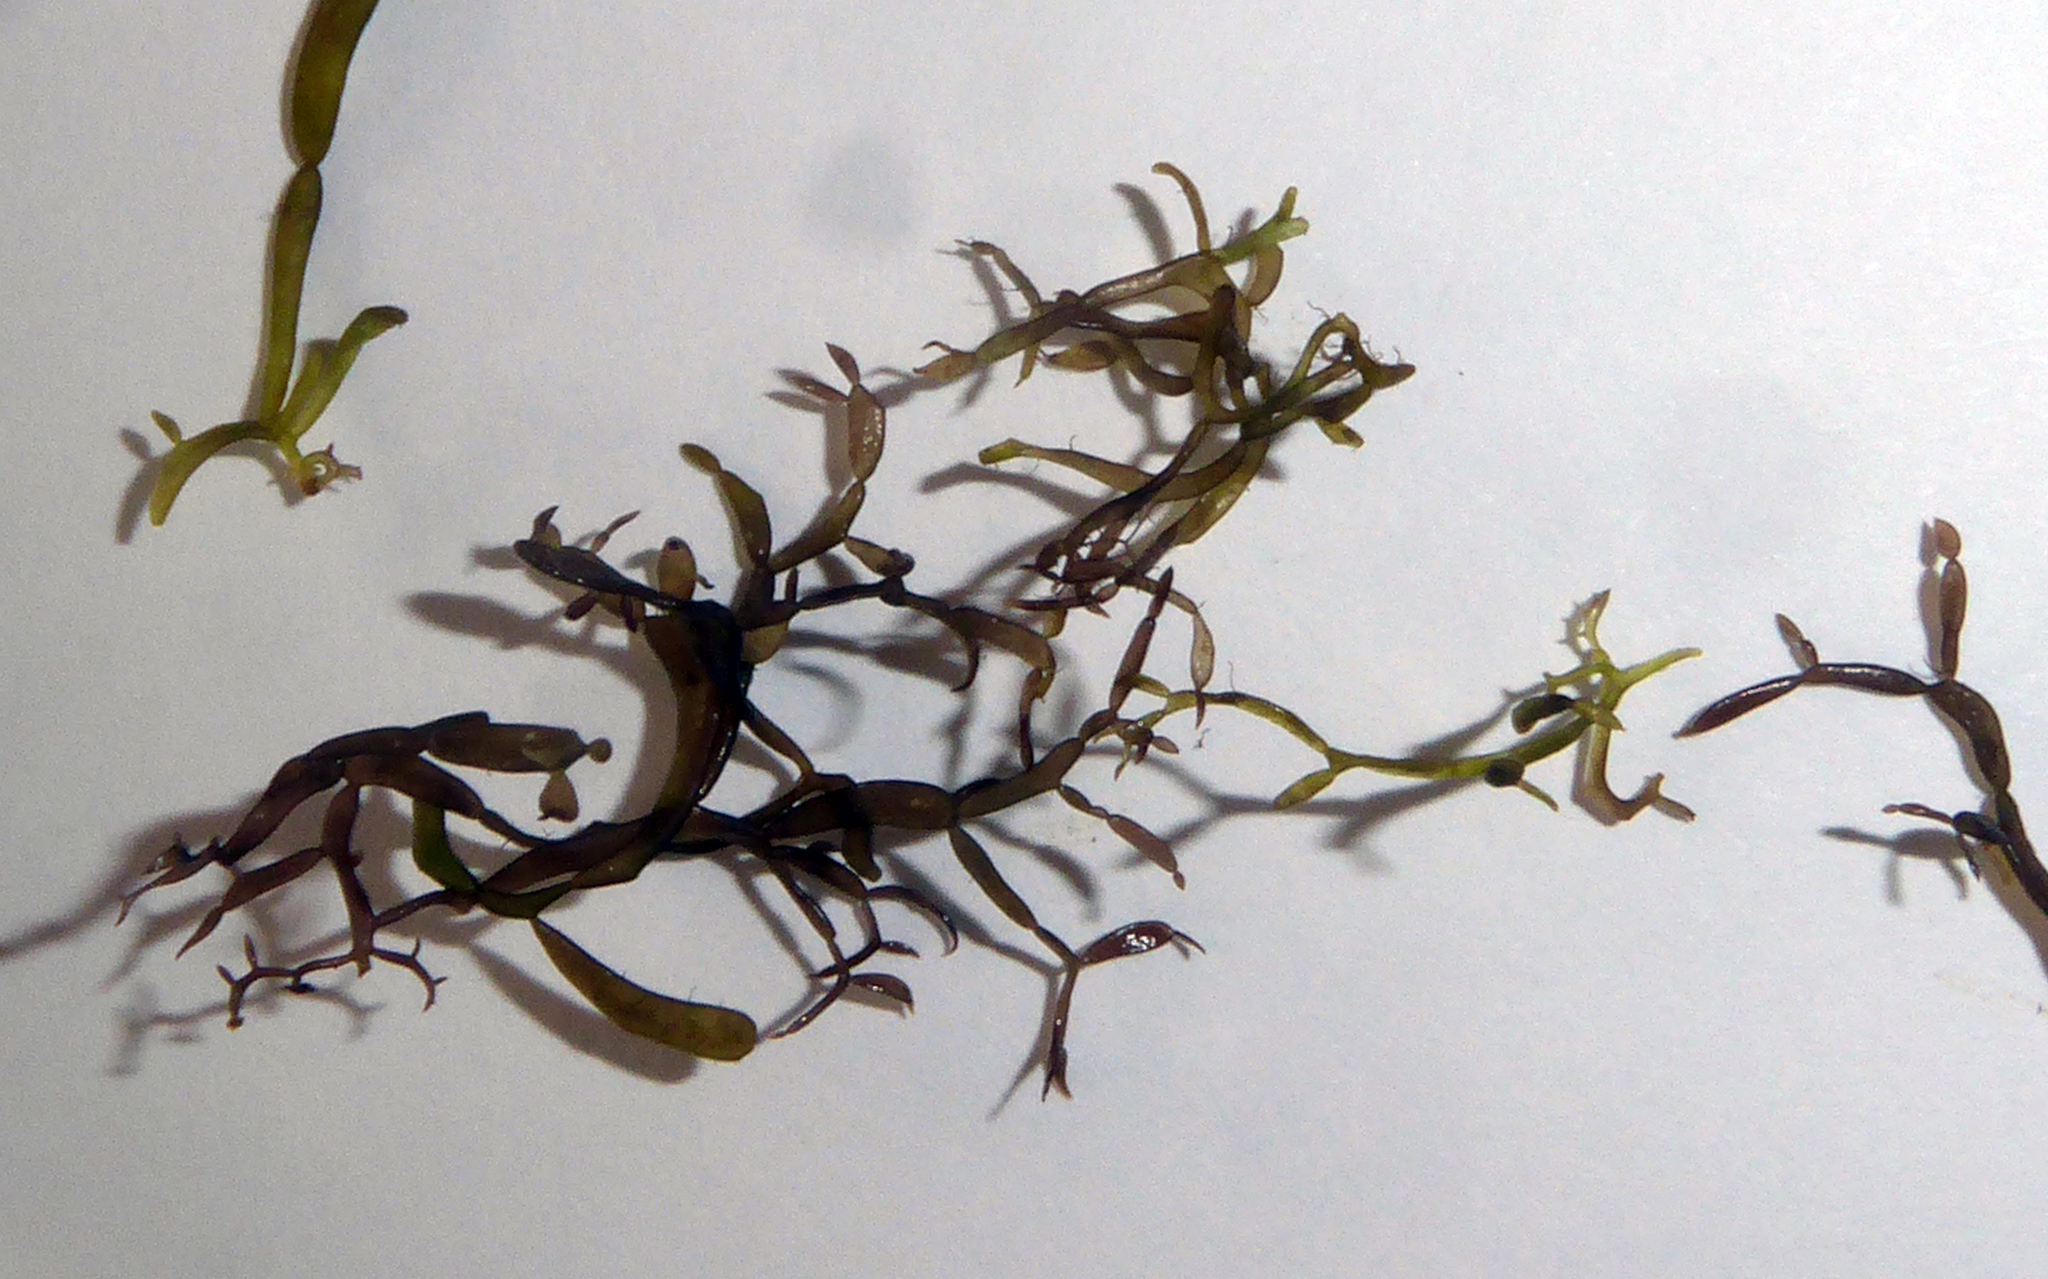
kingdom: Plantae
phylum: Rhodophyta
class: Florideophyceae
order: Gigartinales
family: Caulacanthaceae
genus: Catenella
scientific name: Catenella nipae
